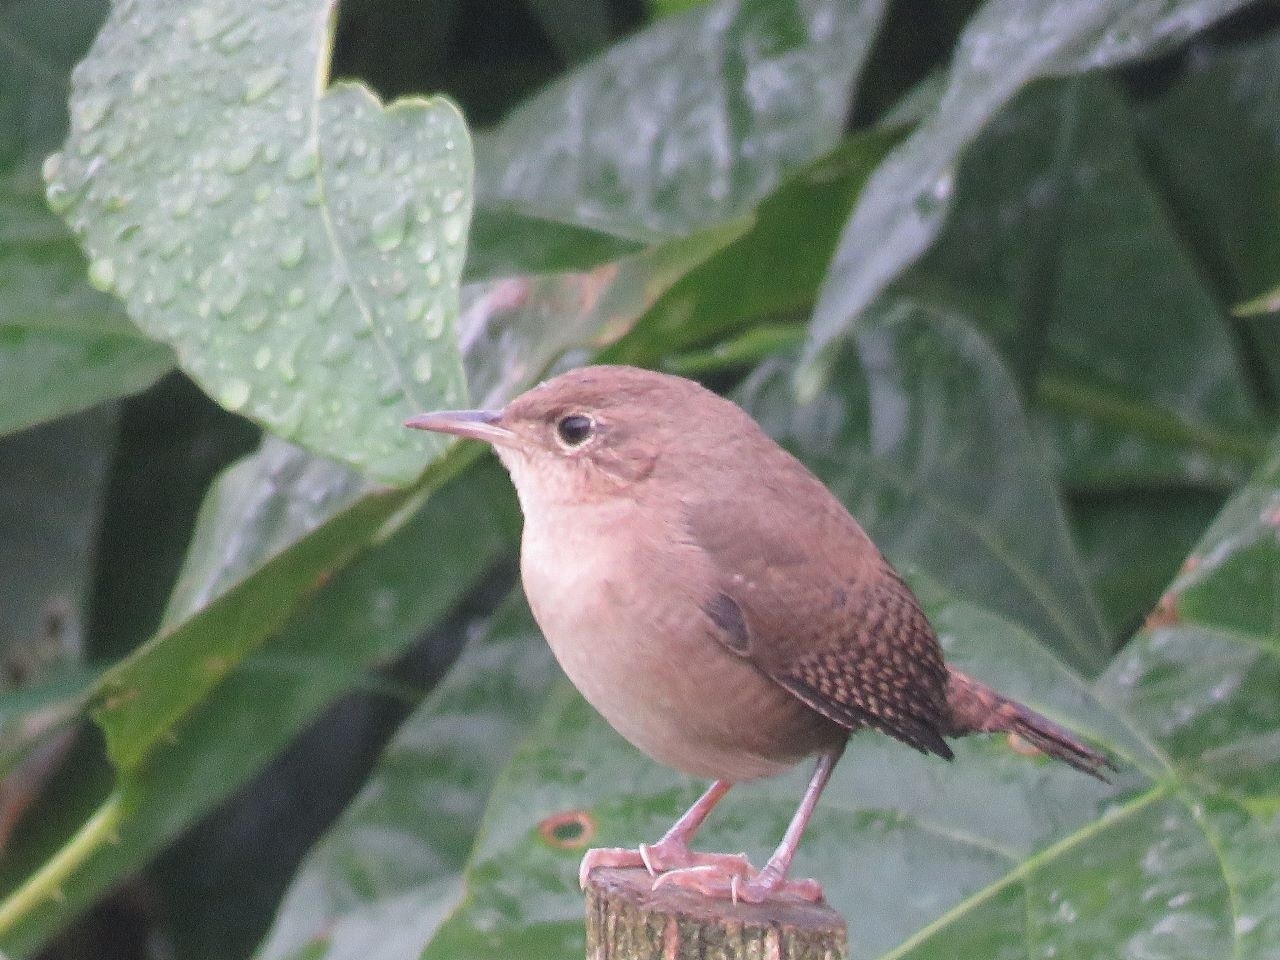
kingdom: Animalia
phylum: Chordata
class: Aves
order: Passeriformes
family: Troglodytidae
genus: Troglodytes
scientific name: Troglodytes aedon
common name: House wren
